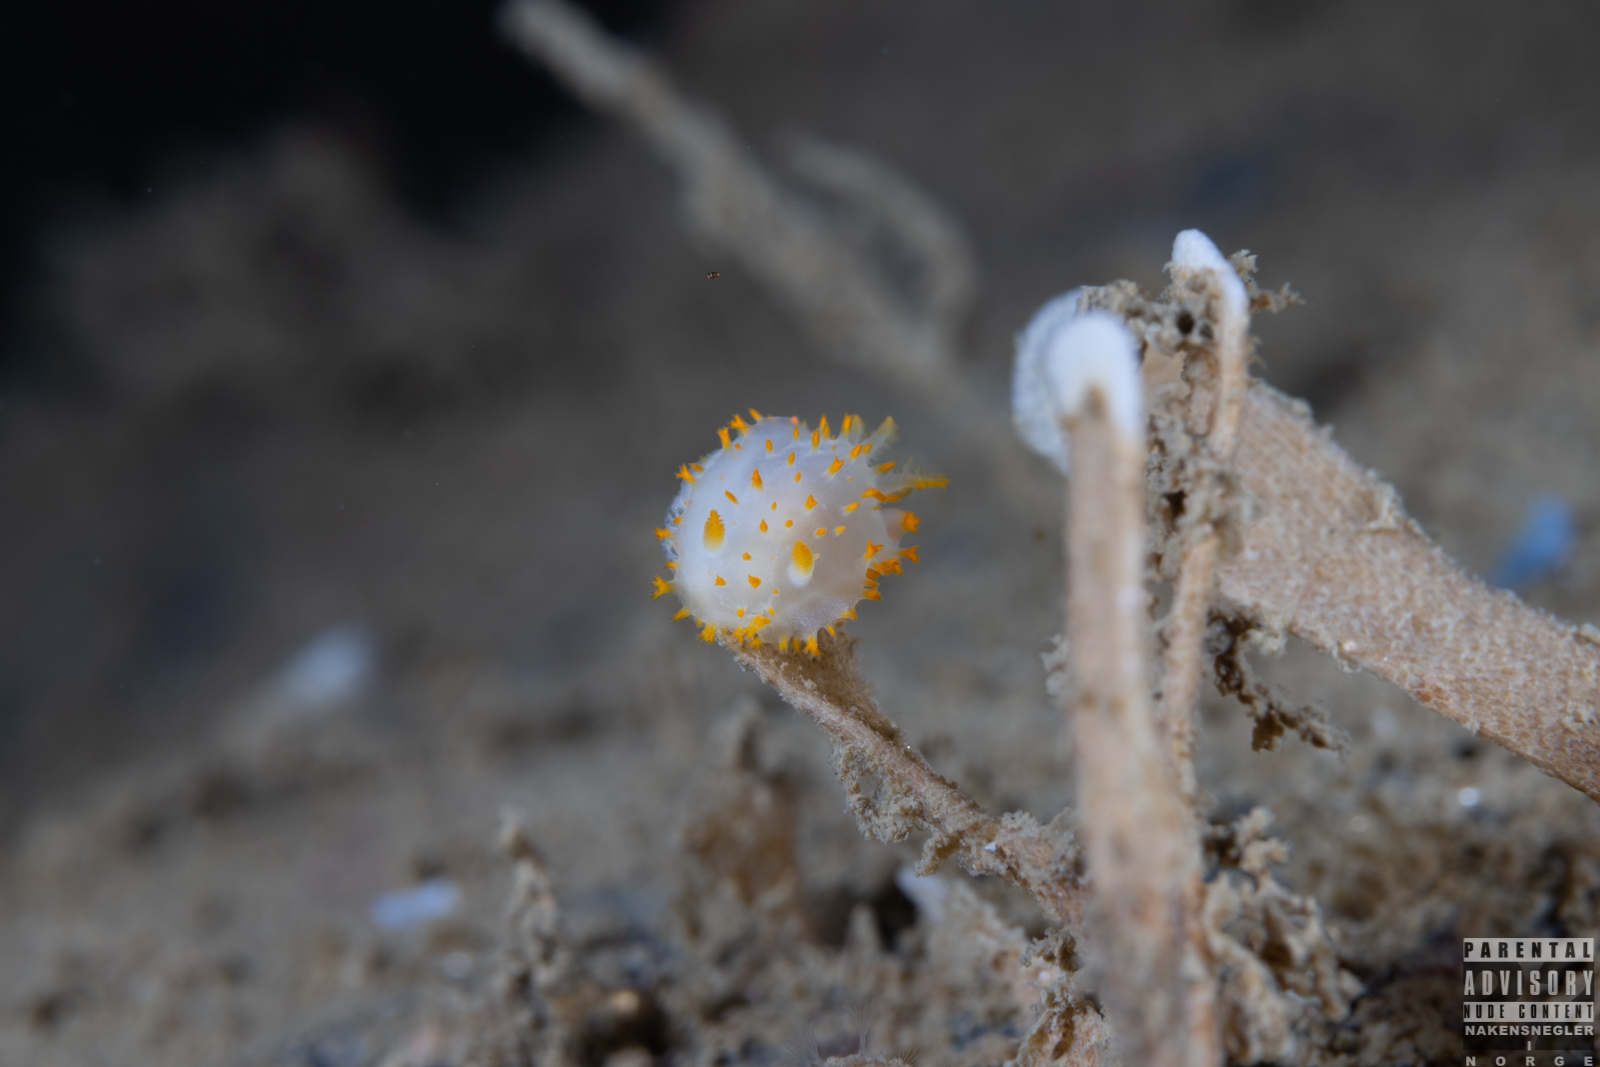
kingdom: Animalia
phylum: Mollusca
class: Gastropoda
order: Nudibranchia
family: Polyceridae
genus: Crimora
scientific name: Crimora papillata
